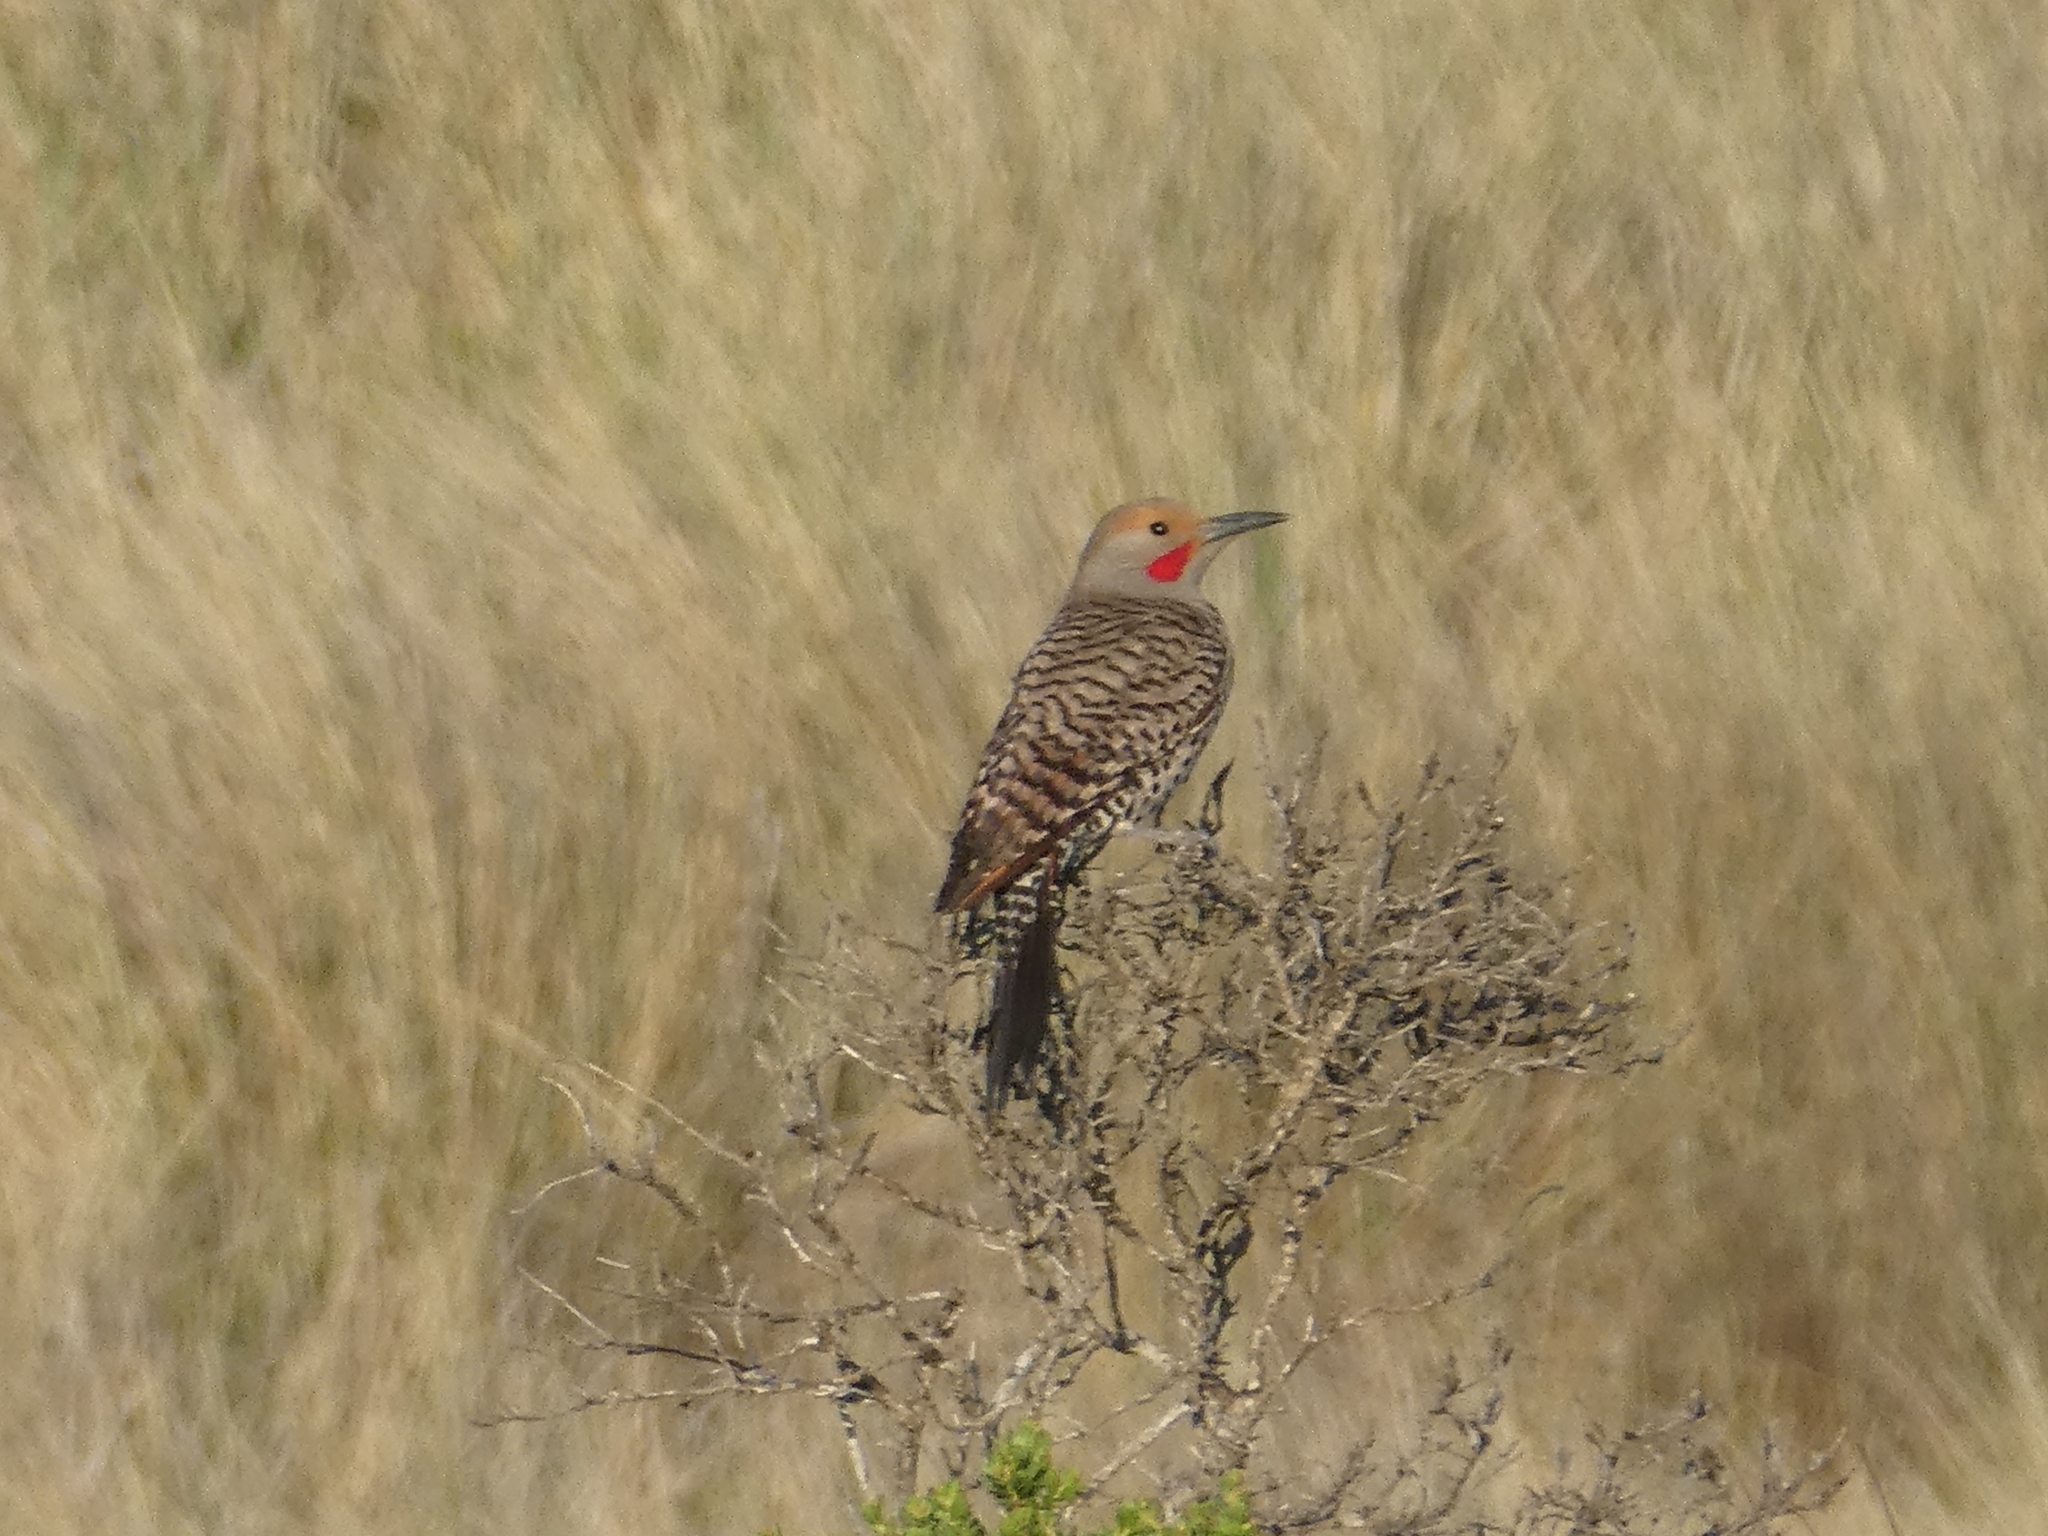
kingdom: Animalia
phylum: Chordata
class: Aves
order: Piciformes
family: Picidae
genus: Colaptes
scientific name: Colaptes auratus
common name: Northern flicker
